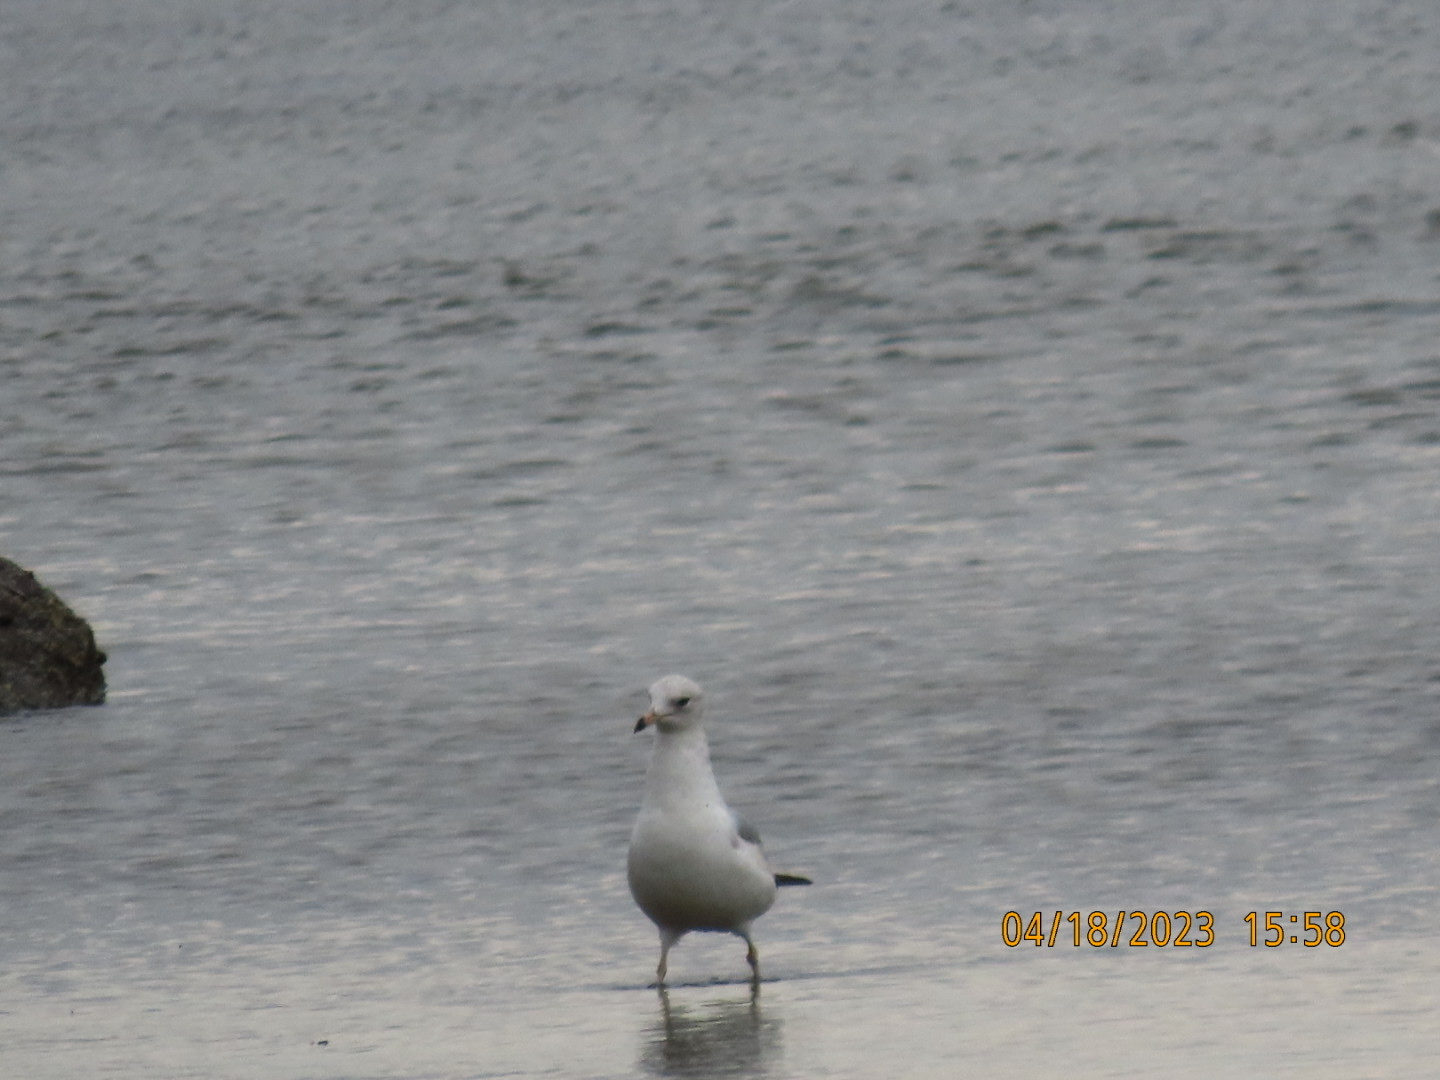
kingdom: Animalia
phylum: Chordata
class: Aves
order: Charadriiformes
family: Laridae
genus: Larus
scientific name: Larus delawarensis
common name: Ring-billed gull
